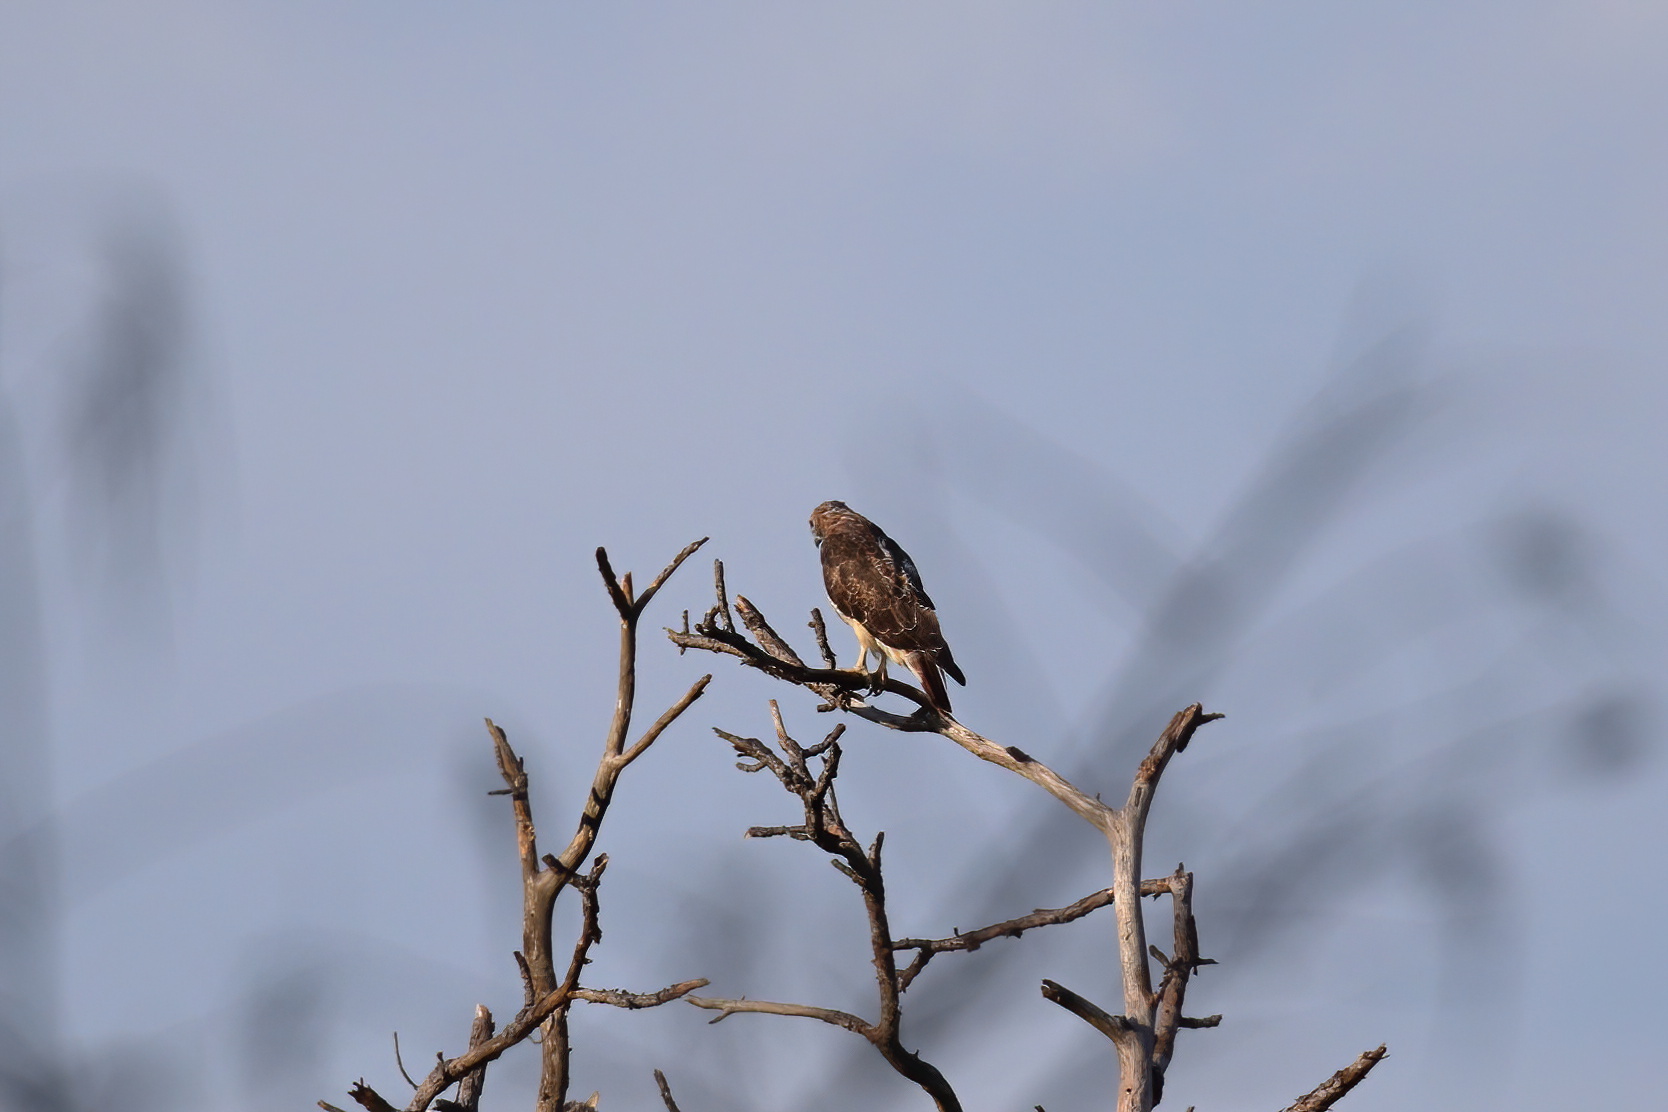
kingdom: Animalia
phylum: Chordata
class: Aves
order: Accipitriformes
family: Accipitridae
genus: Buteo
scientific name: Buteo jamaicensis
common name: Red-tailed hawk
